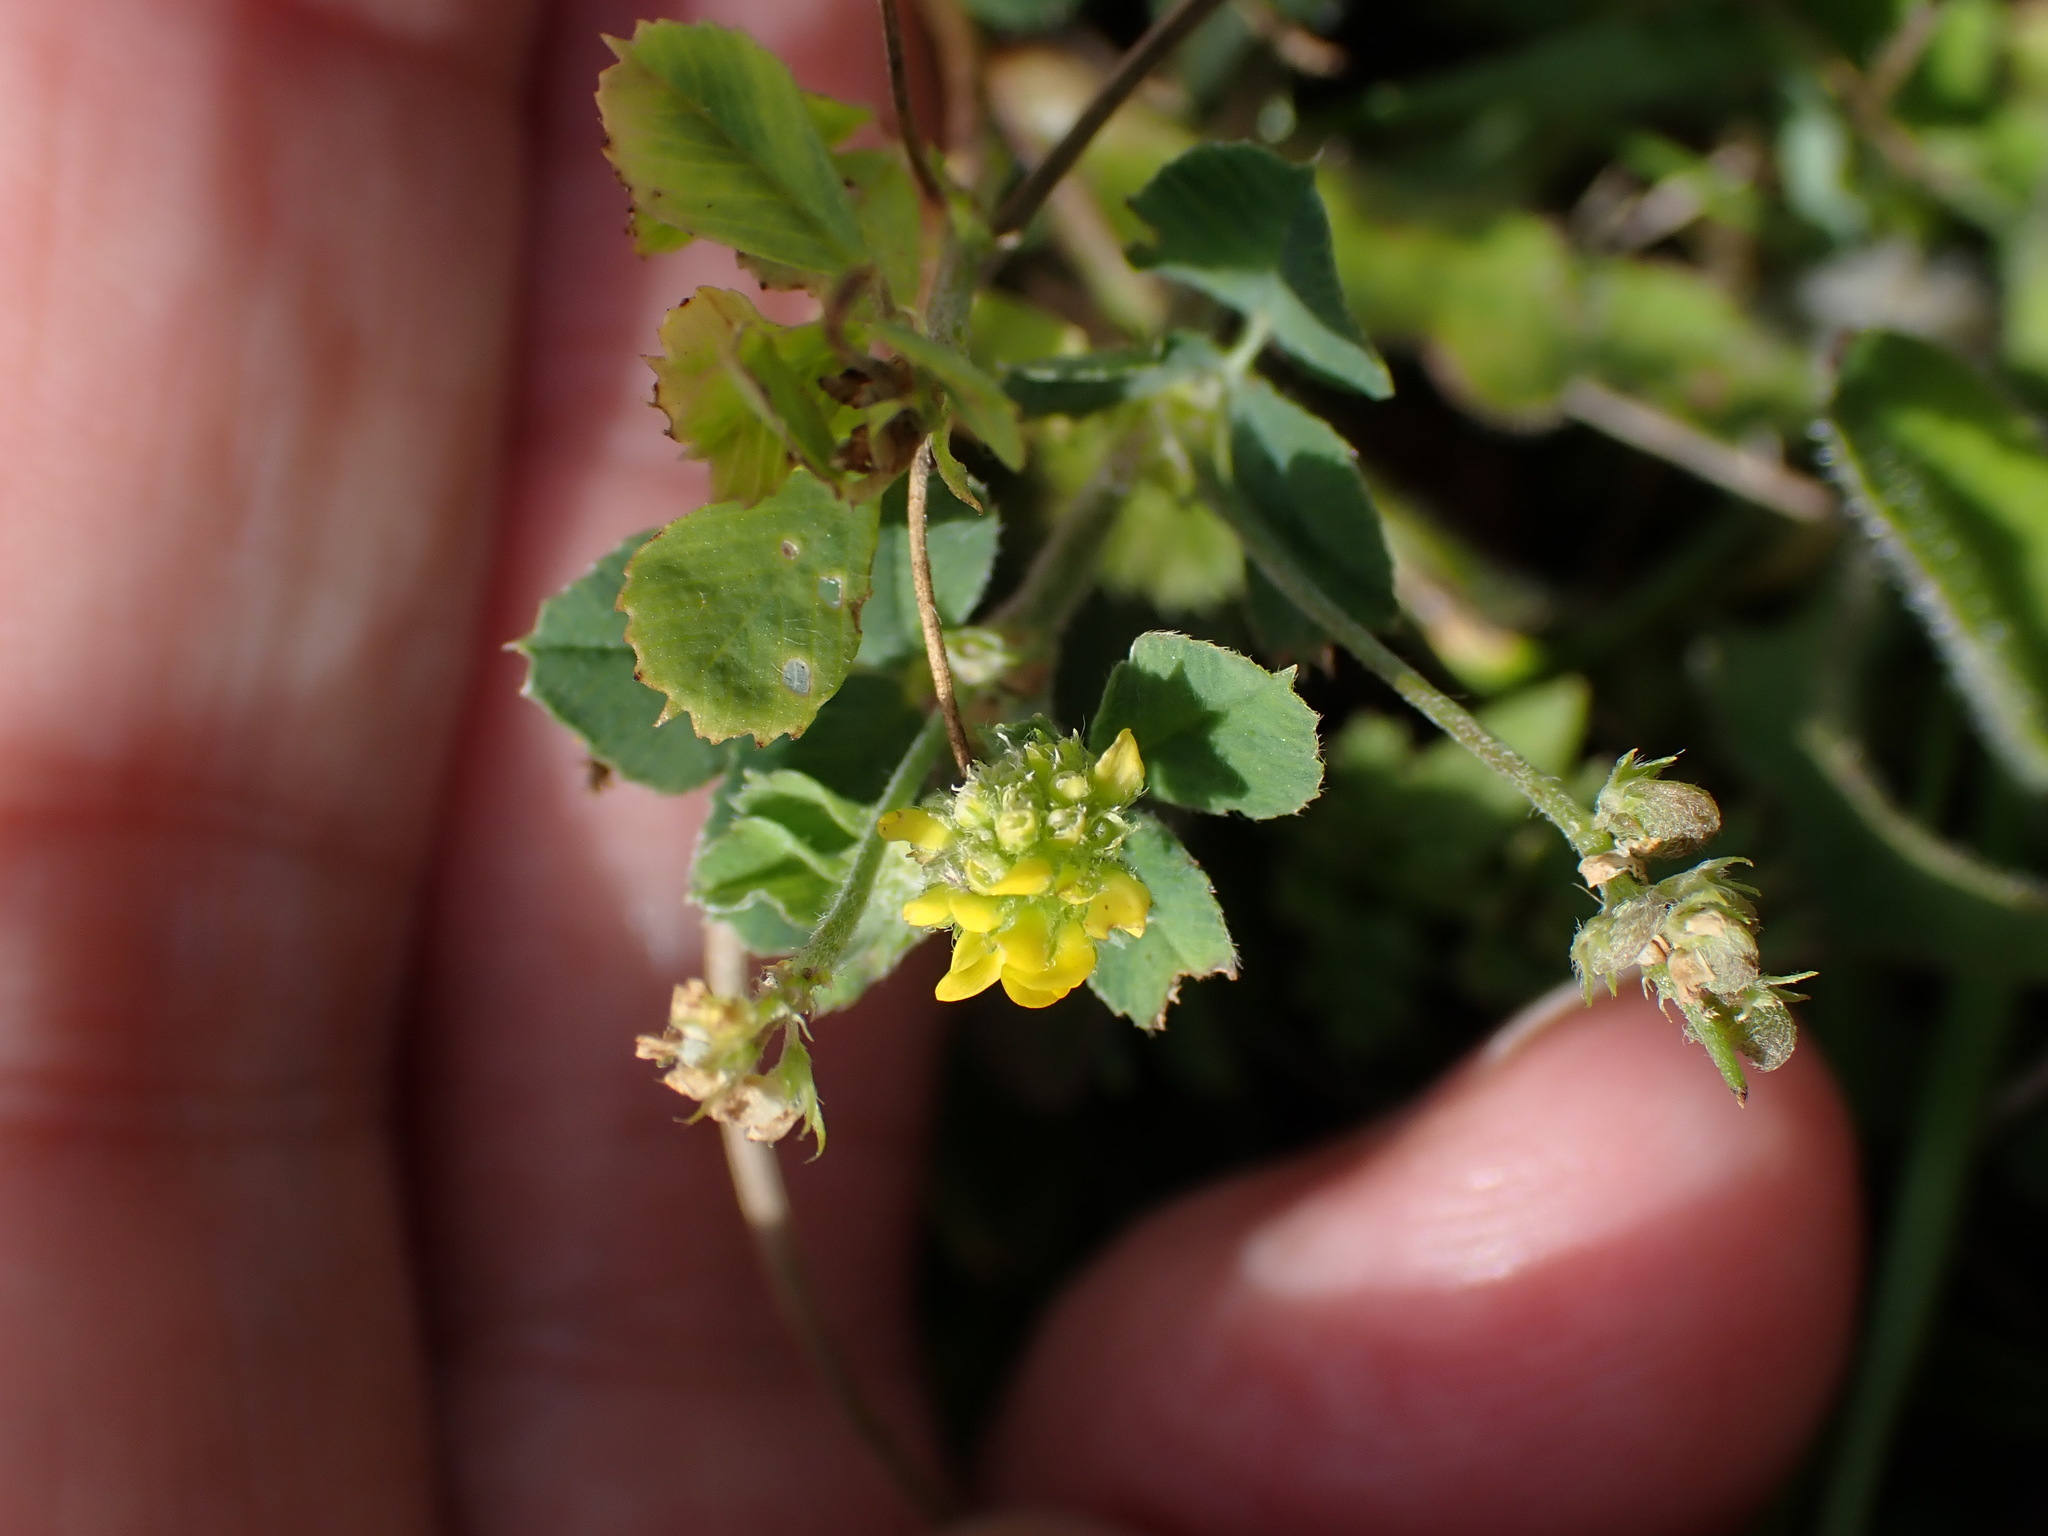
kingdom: Plantae
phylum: Tracheophyta
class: Magnoliopsida
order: Fabales
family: Fabaceae
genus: Medicago
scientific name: Medicago lupulina
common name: Black medick
